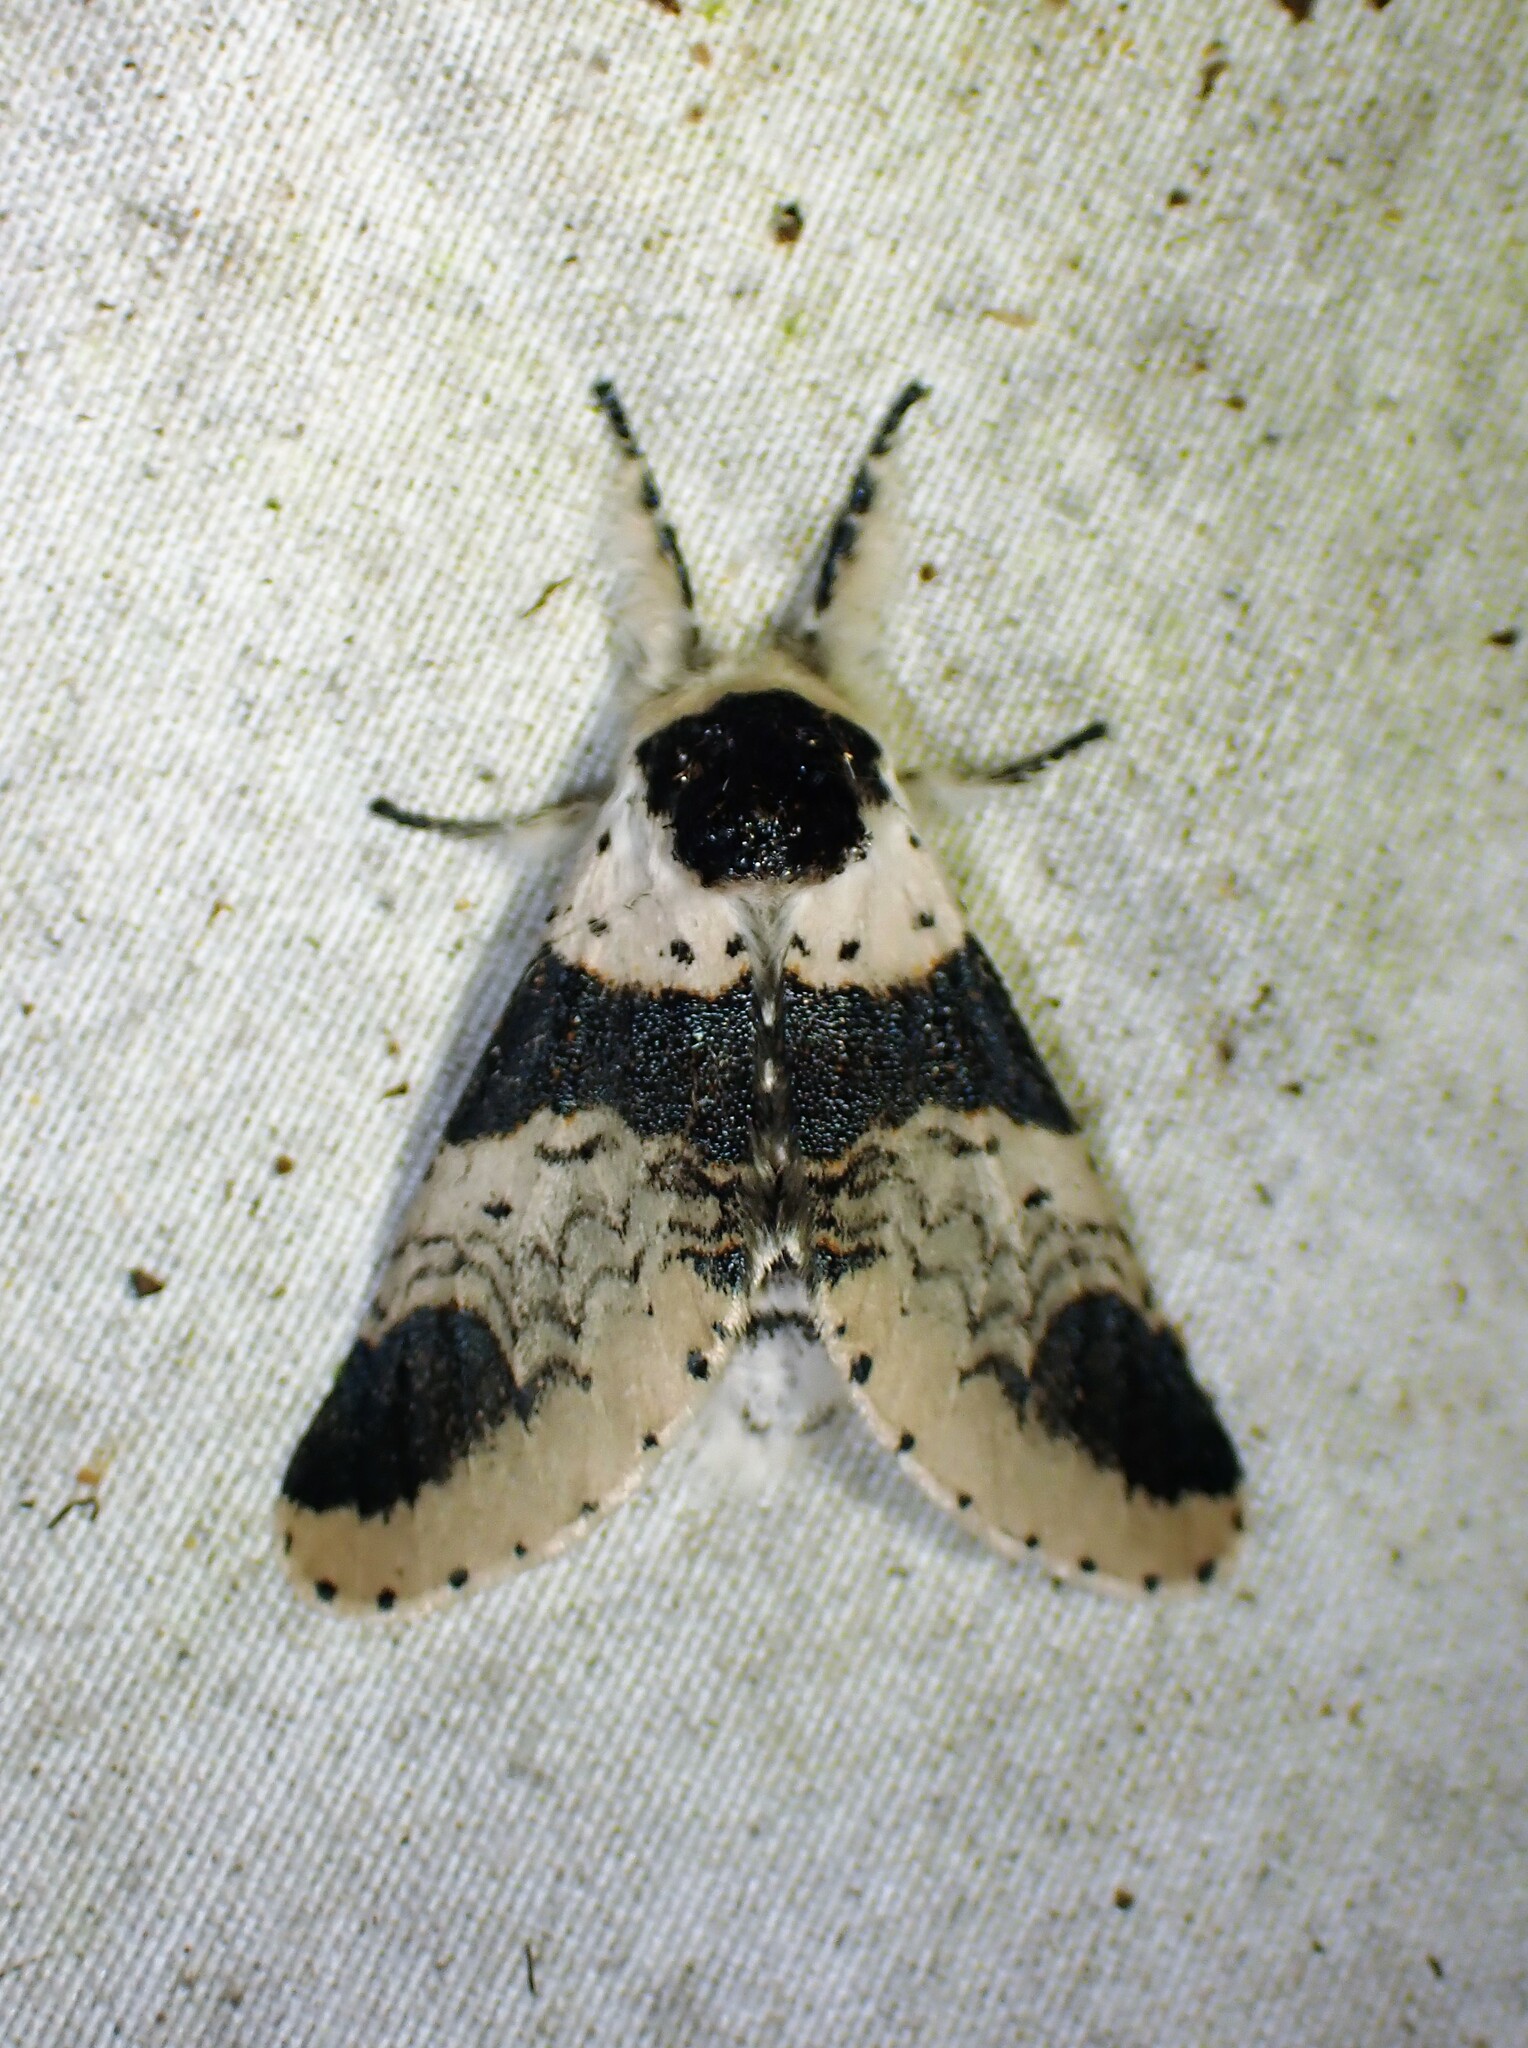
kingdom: Animalia
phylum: Arthropoda
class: Insecta
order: Lepidoptera
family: Notodontidae
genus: Furcula
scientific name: Furcula modesta
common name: Modest furcula moth
